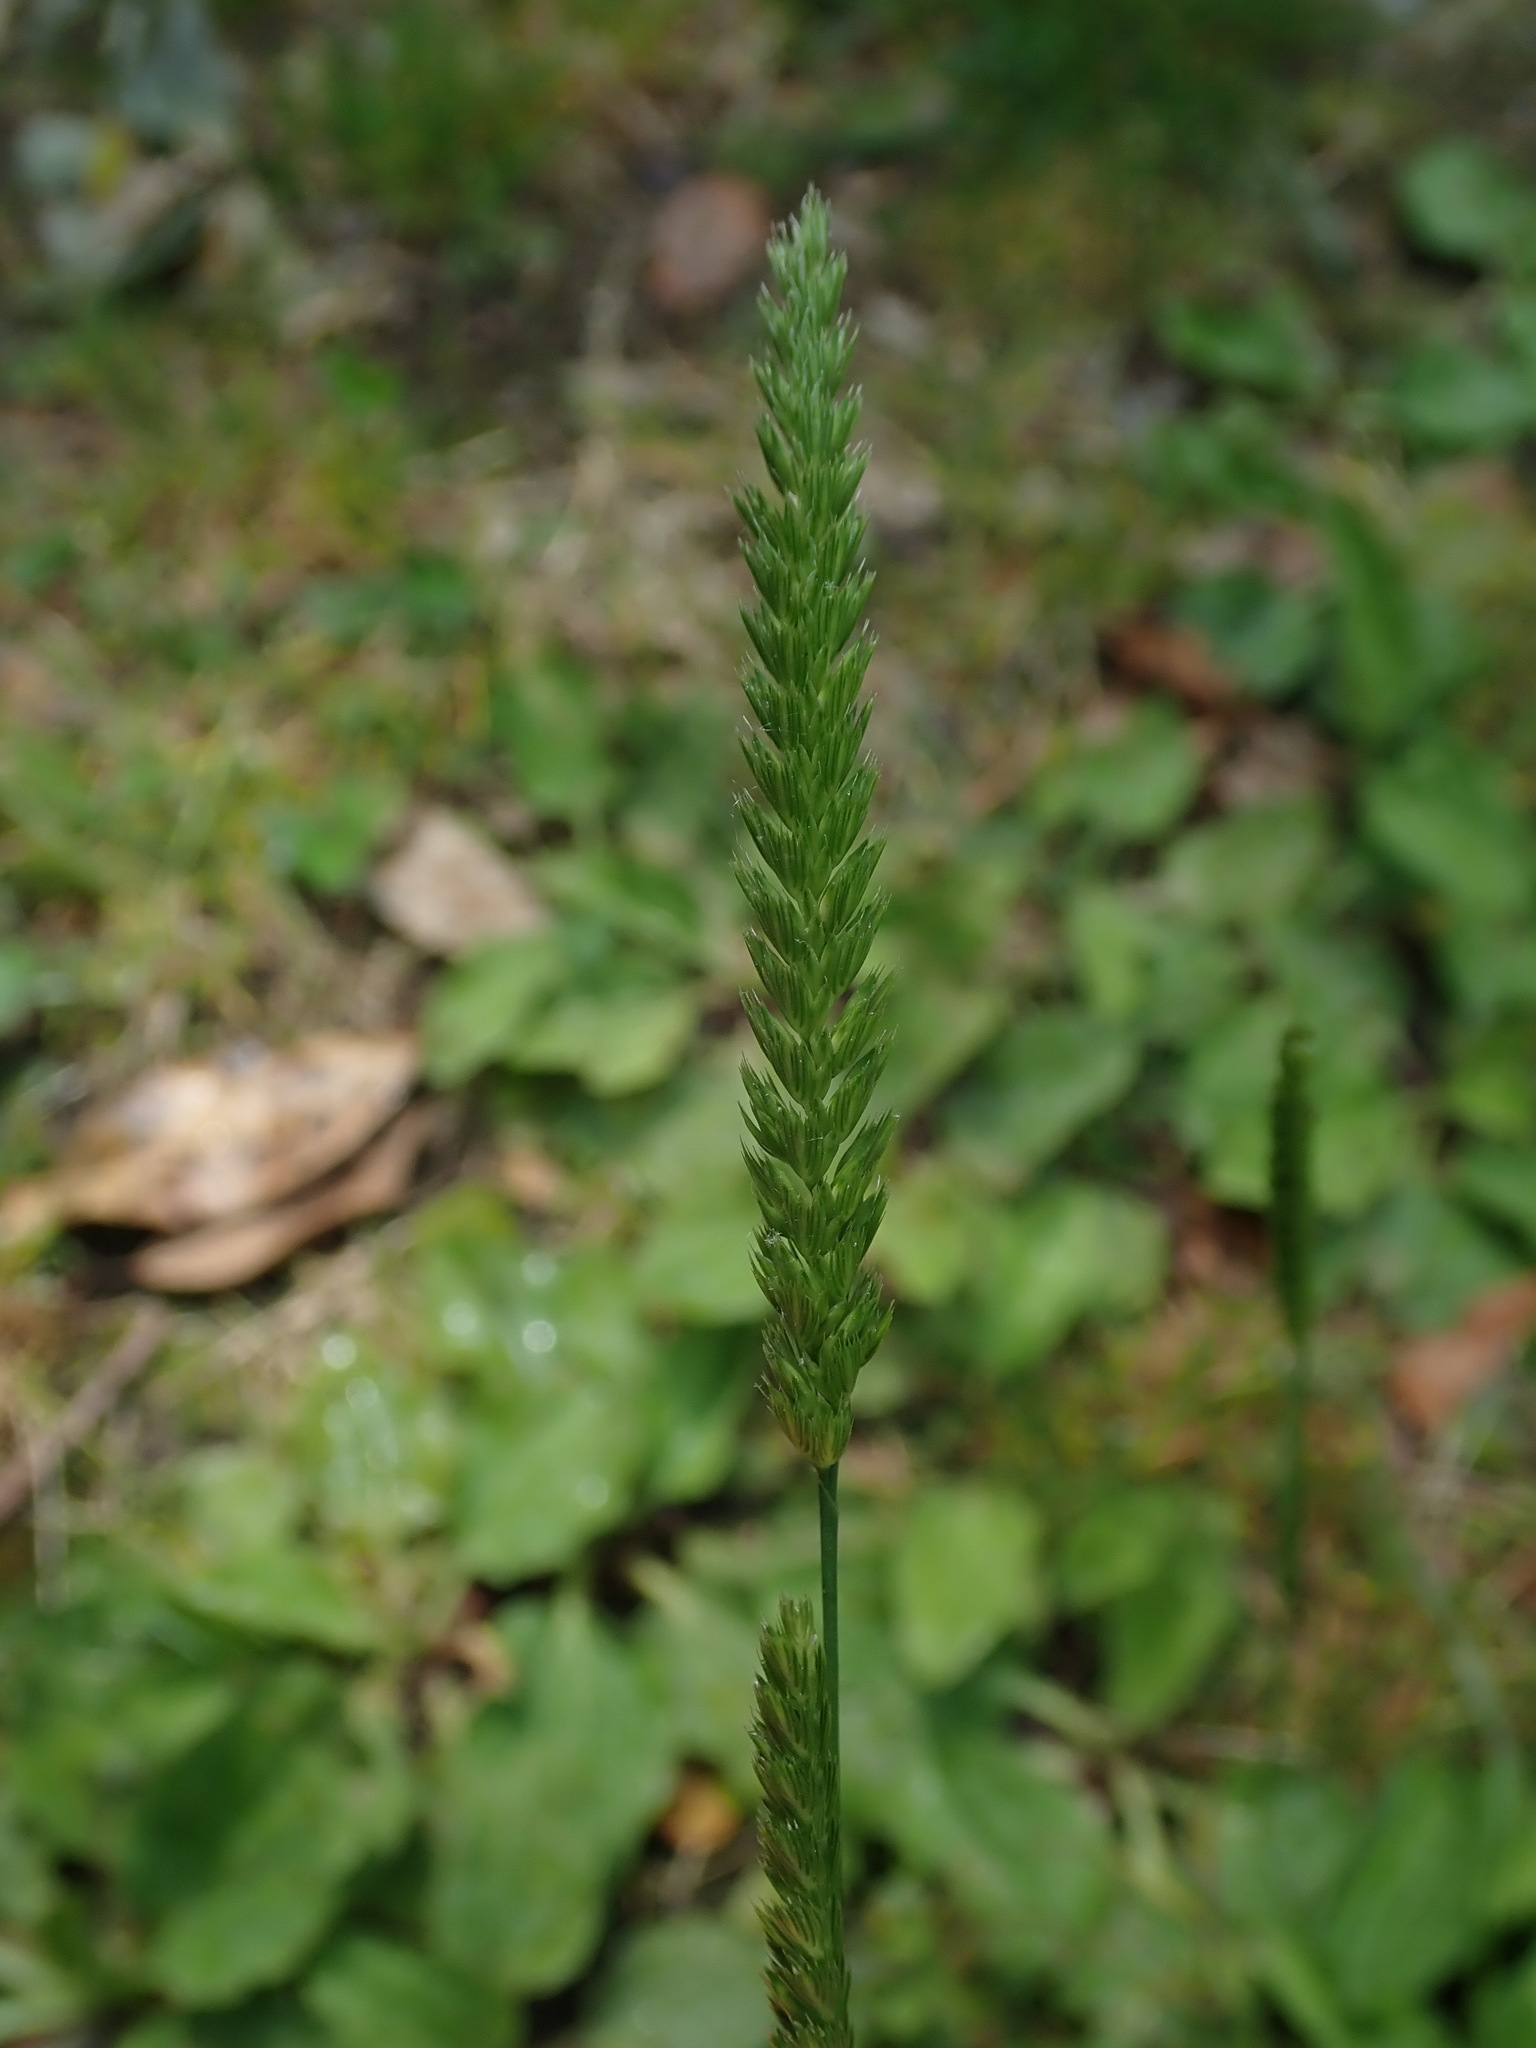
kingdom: Plantae
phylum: Tracheophyta
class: Liliopsida
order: Poales
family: Poaceae
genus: Cynosurus
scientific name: Cynosurus cristatus
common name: Crested dog's-tail
